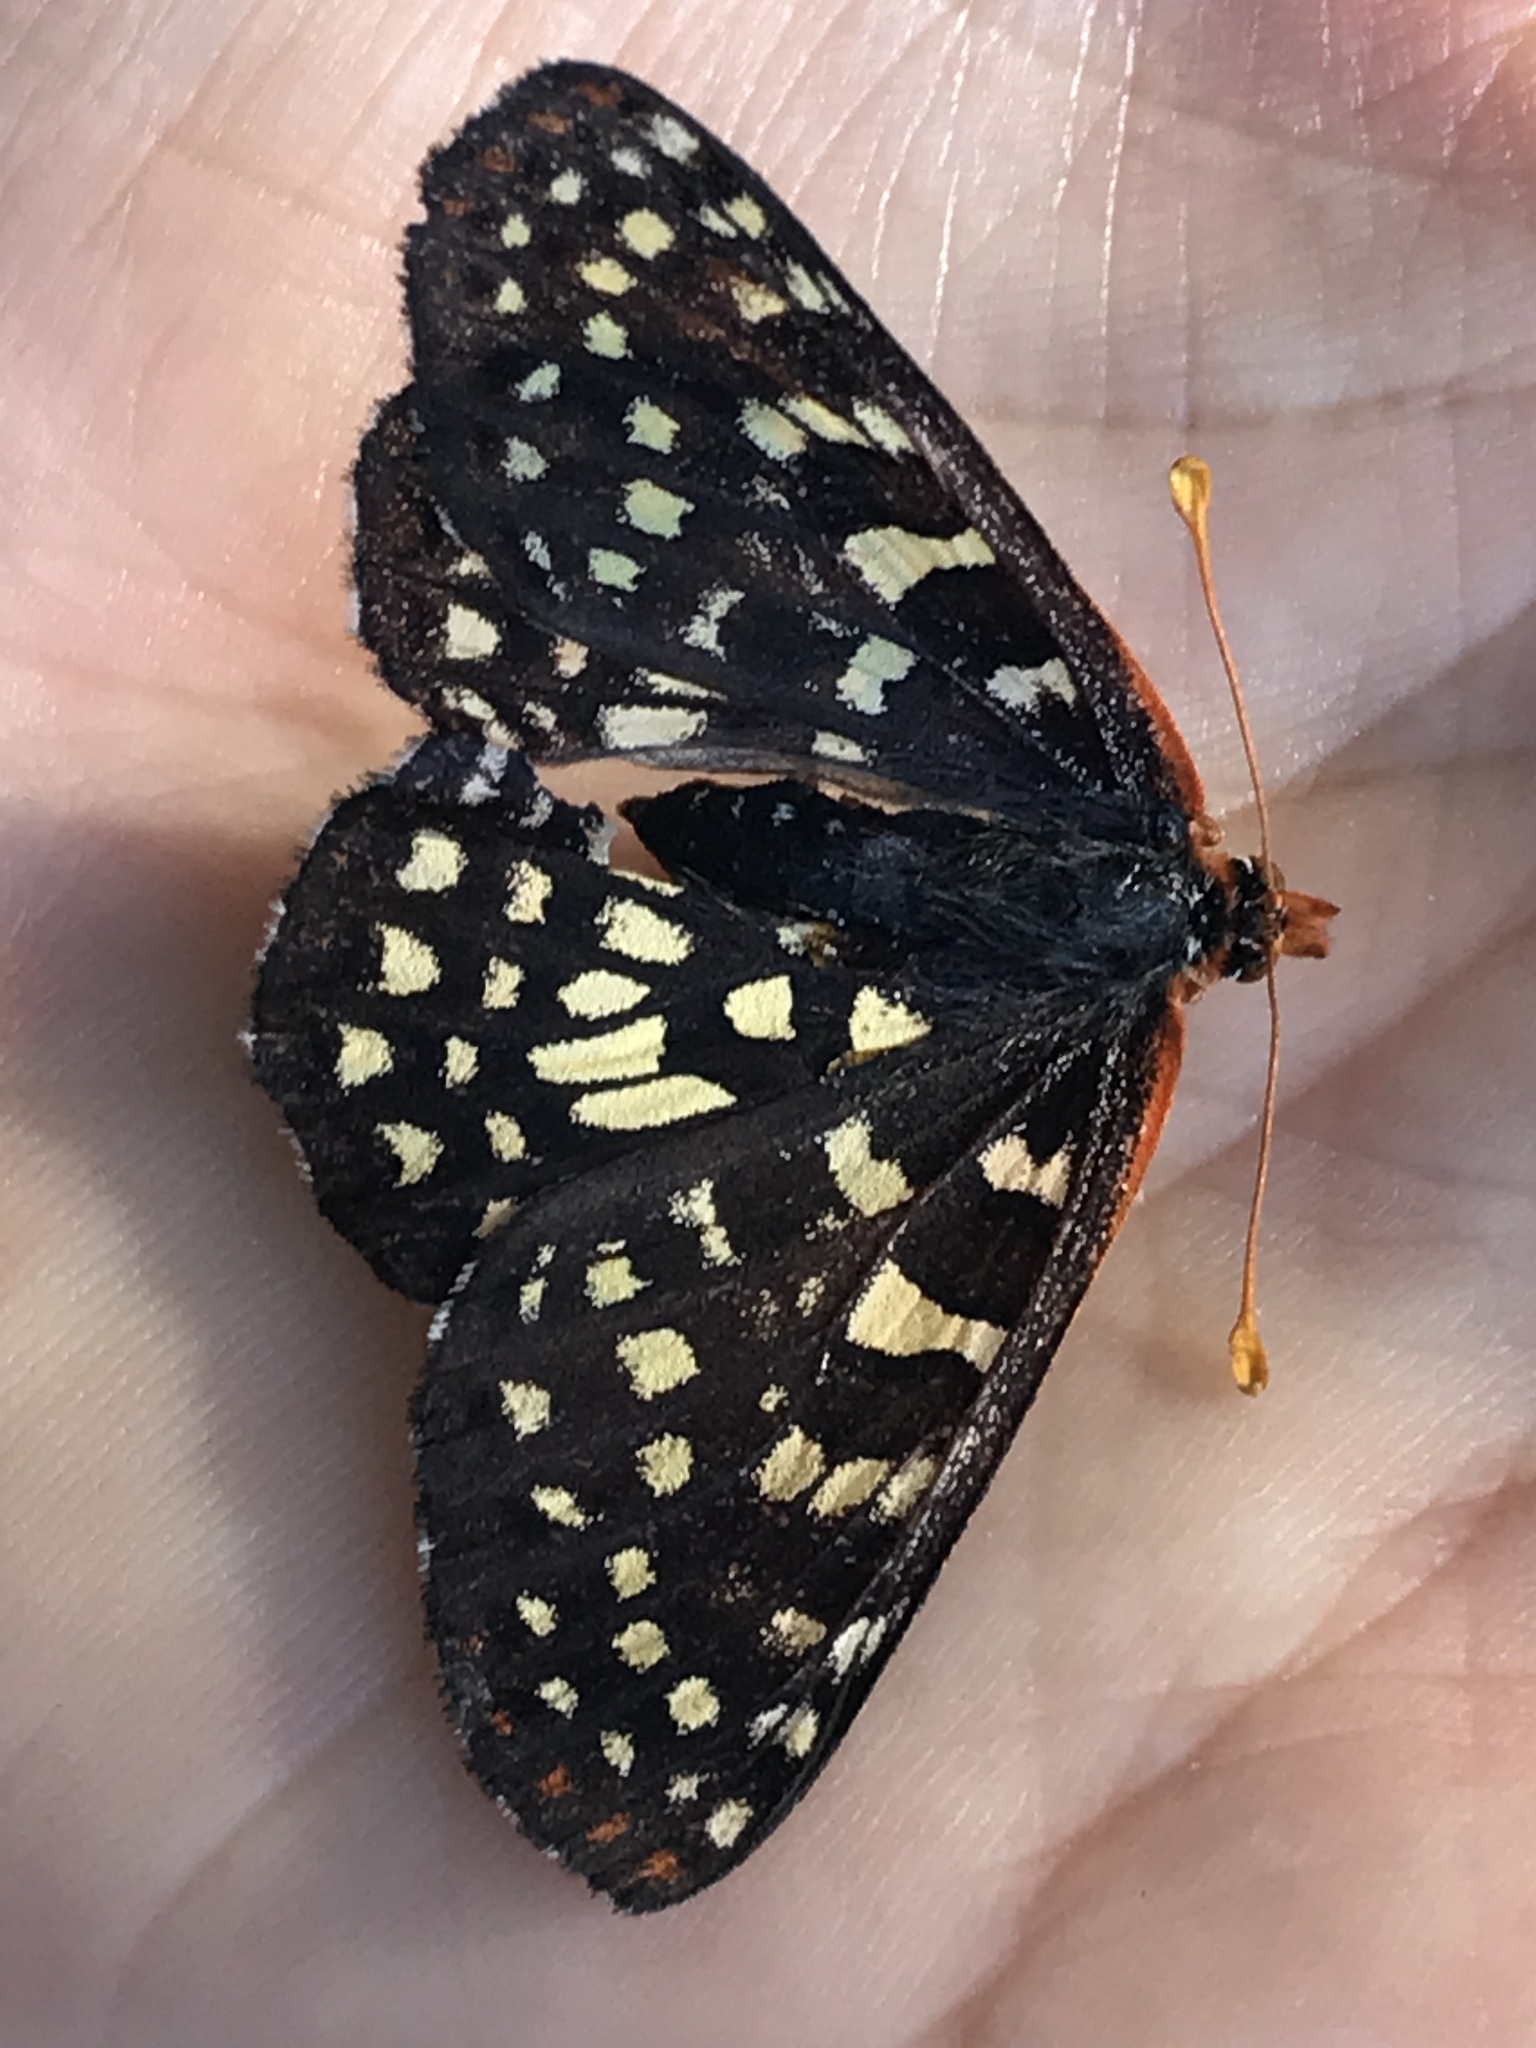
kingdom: Animalia
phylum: Arthropoda
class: Insecta
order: Lepidoptera
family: Nymphalidae
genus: Occidryas
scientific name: Occidryas chalcedona
